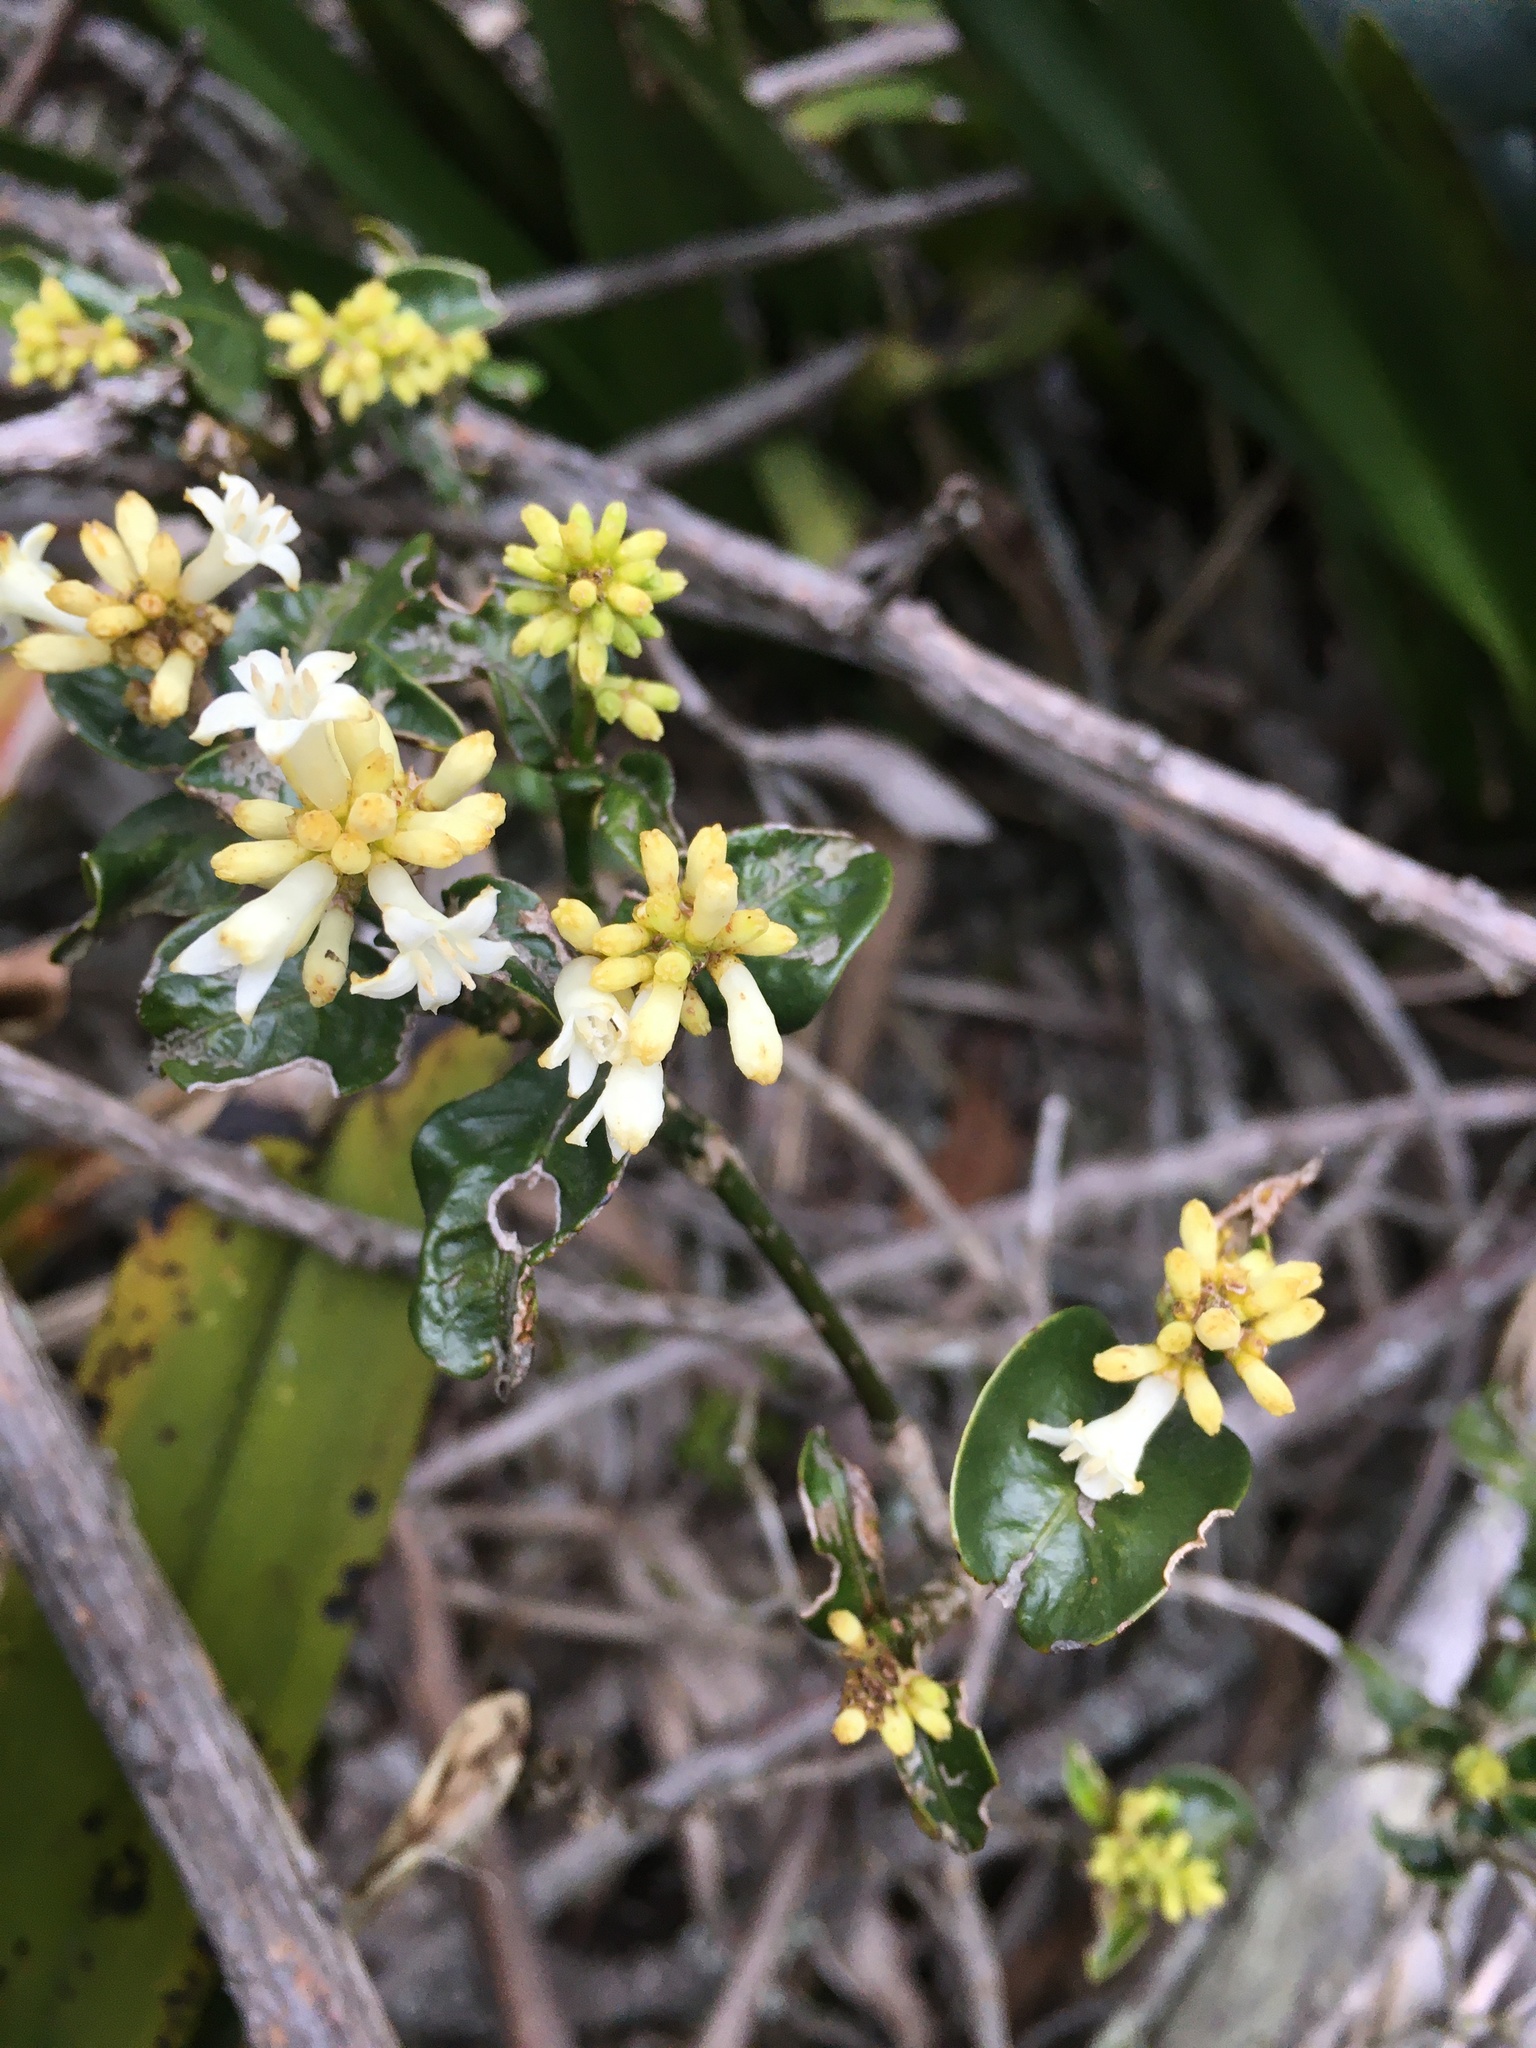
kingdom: Plantae
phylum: Tracheophyta
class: Magnoliopsida
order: Gentianales
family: Rubiaceae
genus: Palicourea
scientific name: Palicourea boqueronensis
